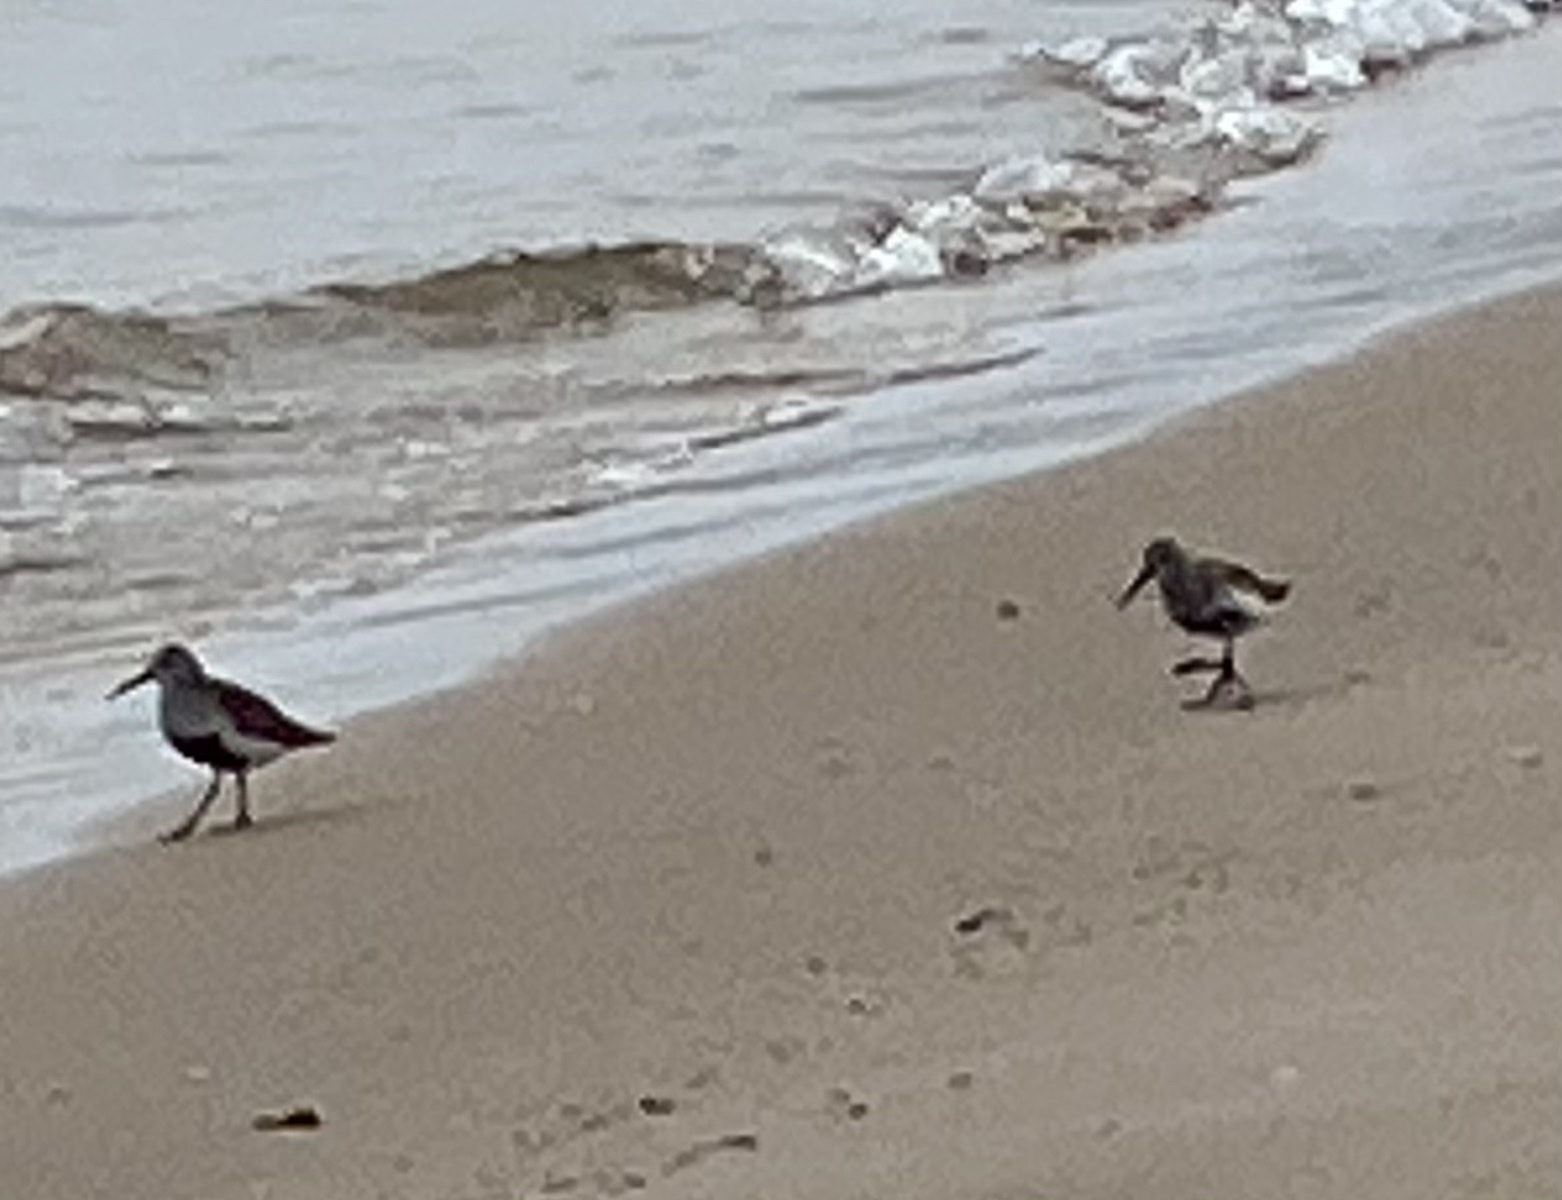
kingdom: Animalia
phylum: Chordata
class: Aves
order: Charadriiformes
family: Scolopacidae
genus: Calidris
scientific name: Calidris alpina
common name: Dunlin
